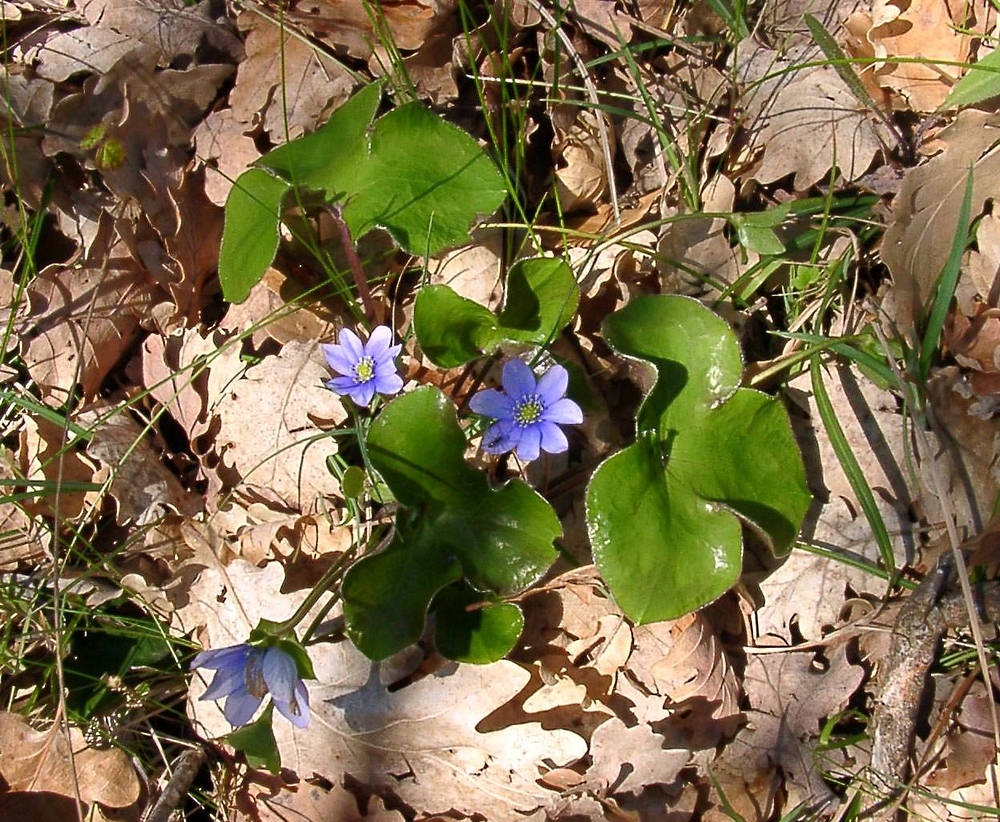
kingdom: Plantae
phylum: Tracheophyta
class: Magnoliopsida
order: Ranunculales
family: Ranunculaceae
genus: Hepatica
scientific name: Hepatica nobilis
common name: Liverleaf
